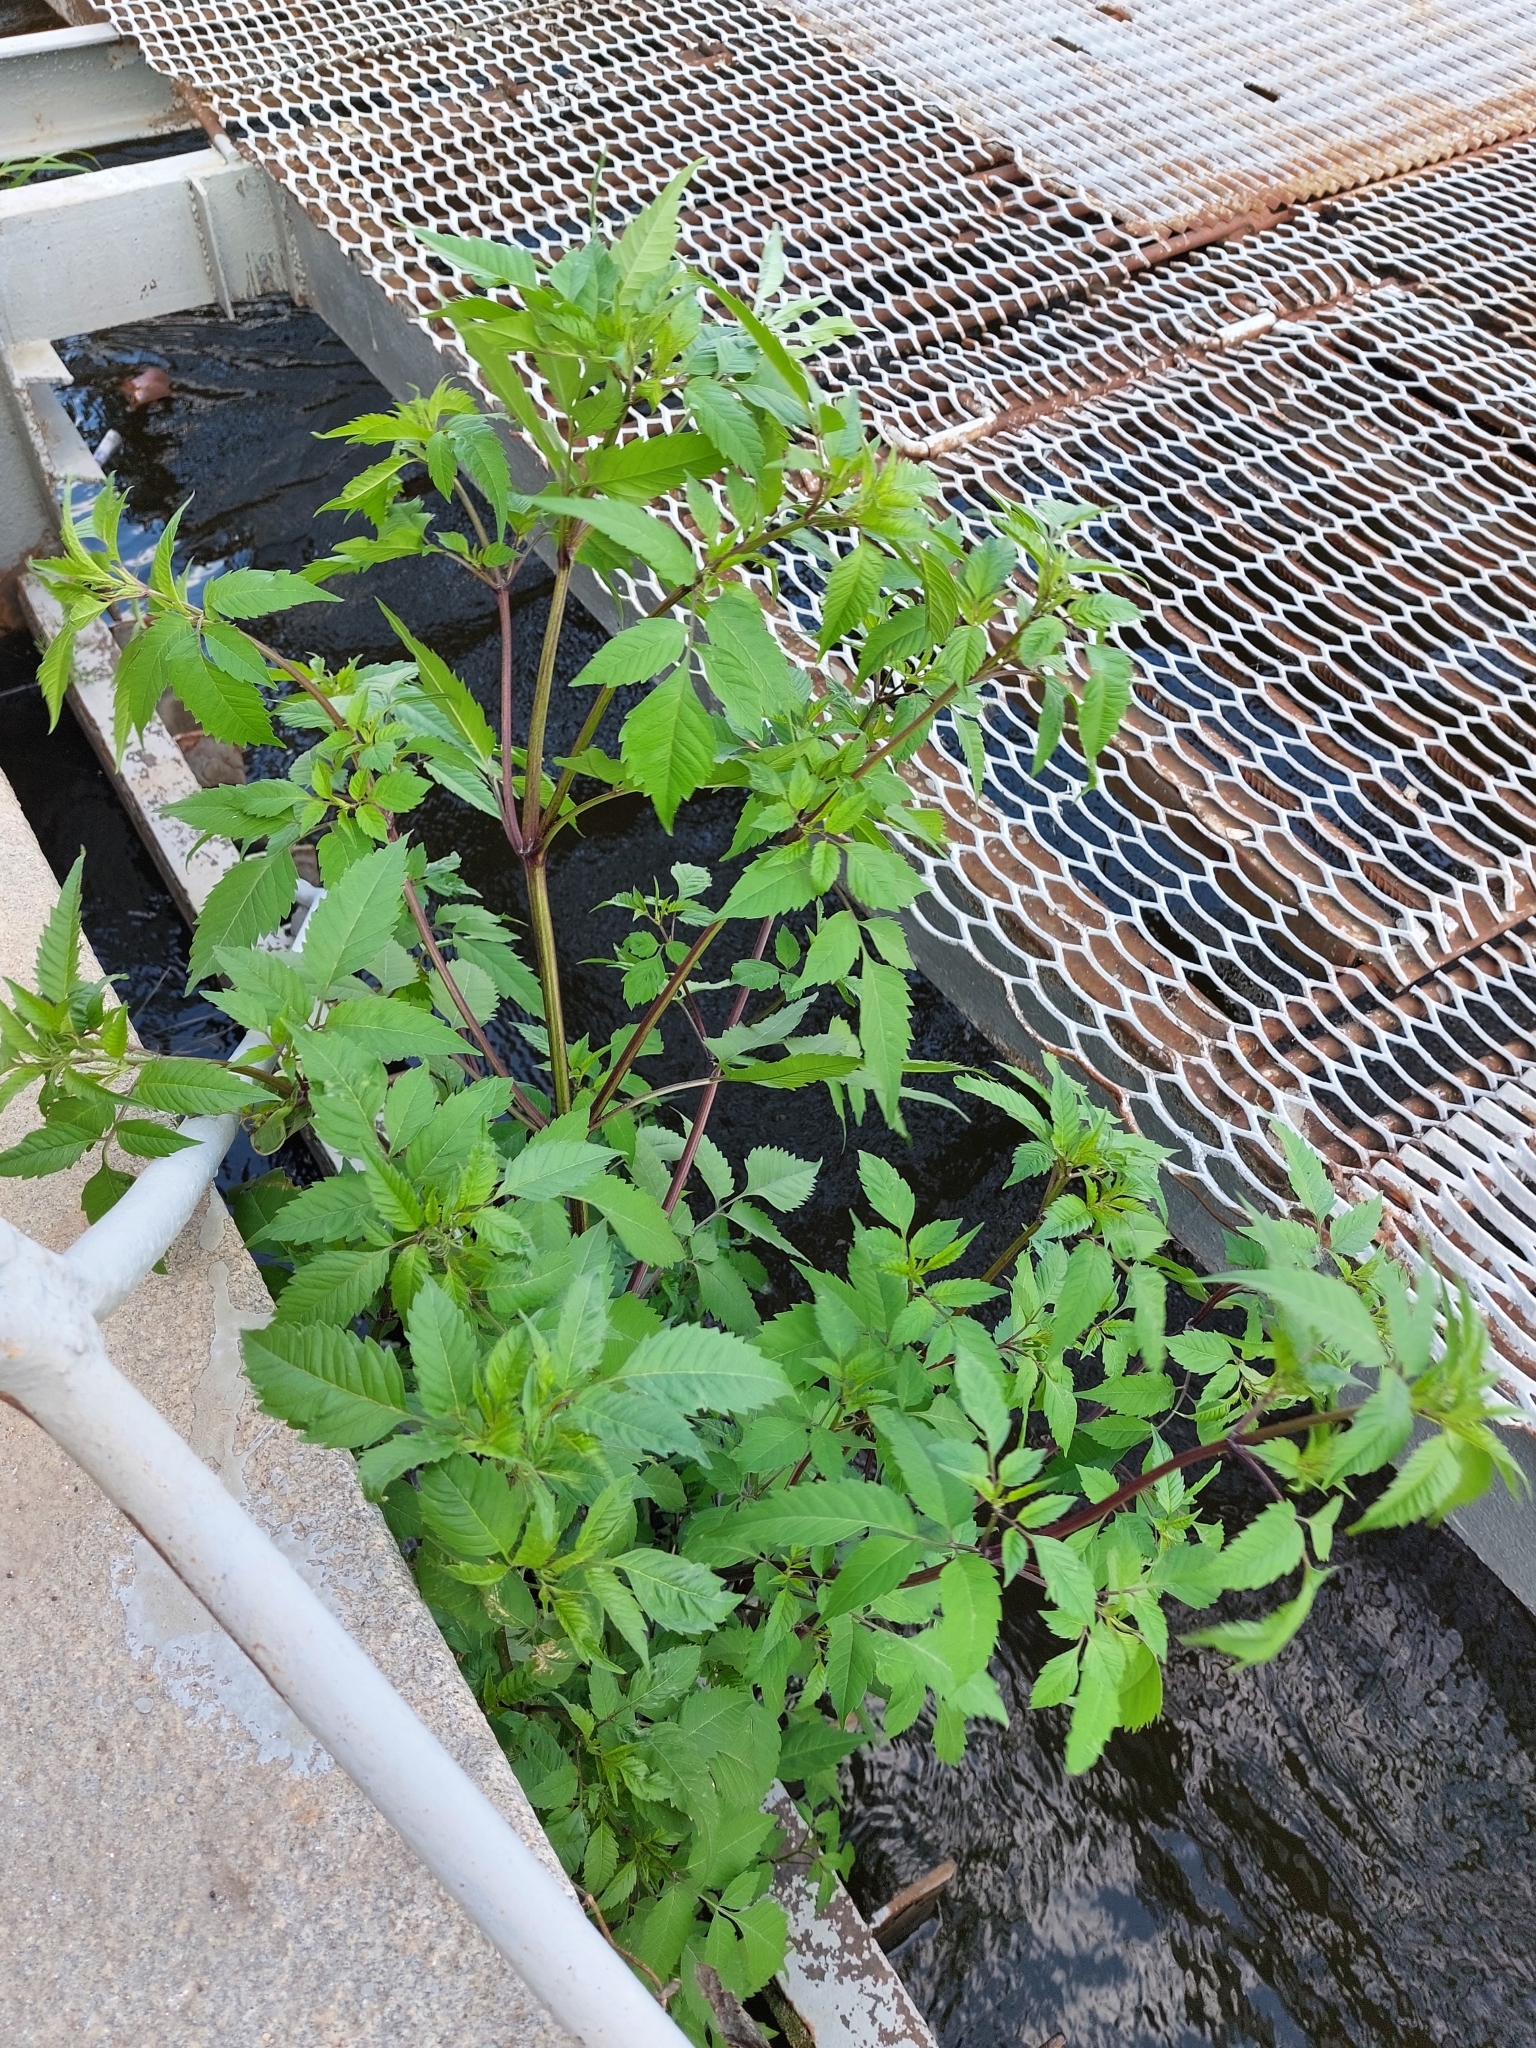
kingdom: Plantae
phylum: Tracheophyta
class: Magnoliopsida
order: Asterales
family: Asteraceae
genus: Bidens
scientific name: Bidens frondosa
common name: Beggarticks
